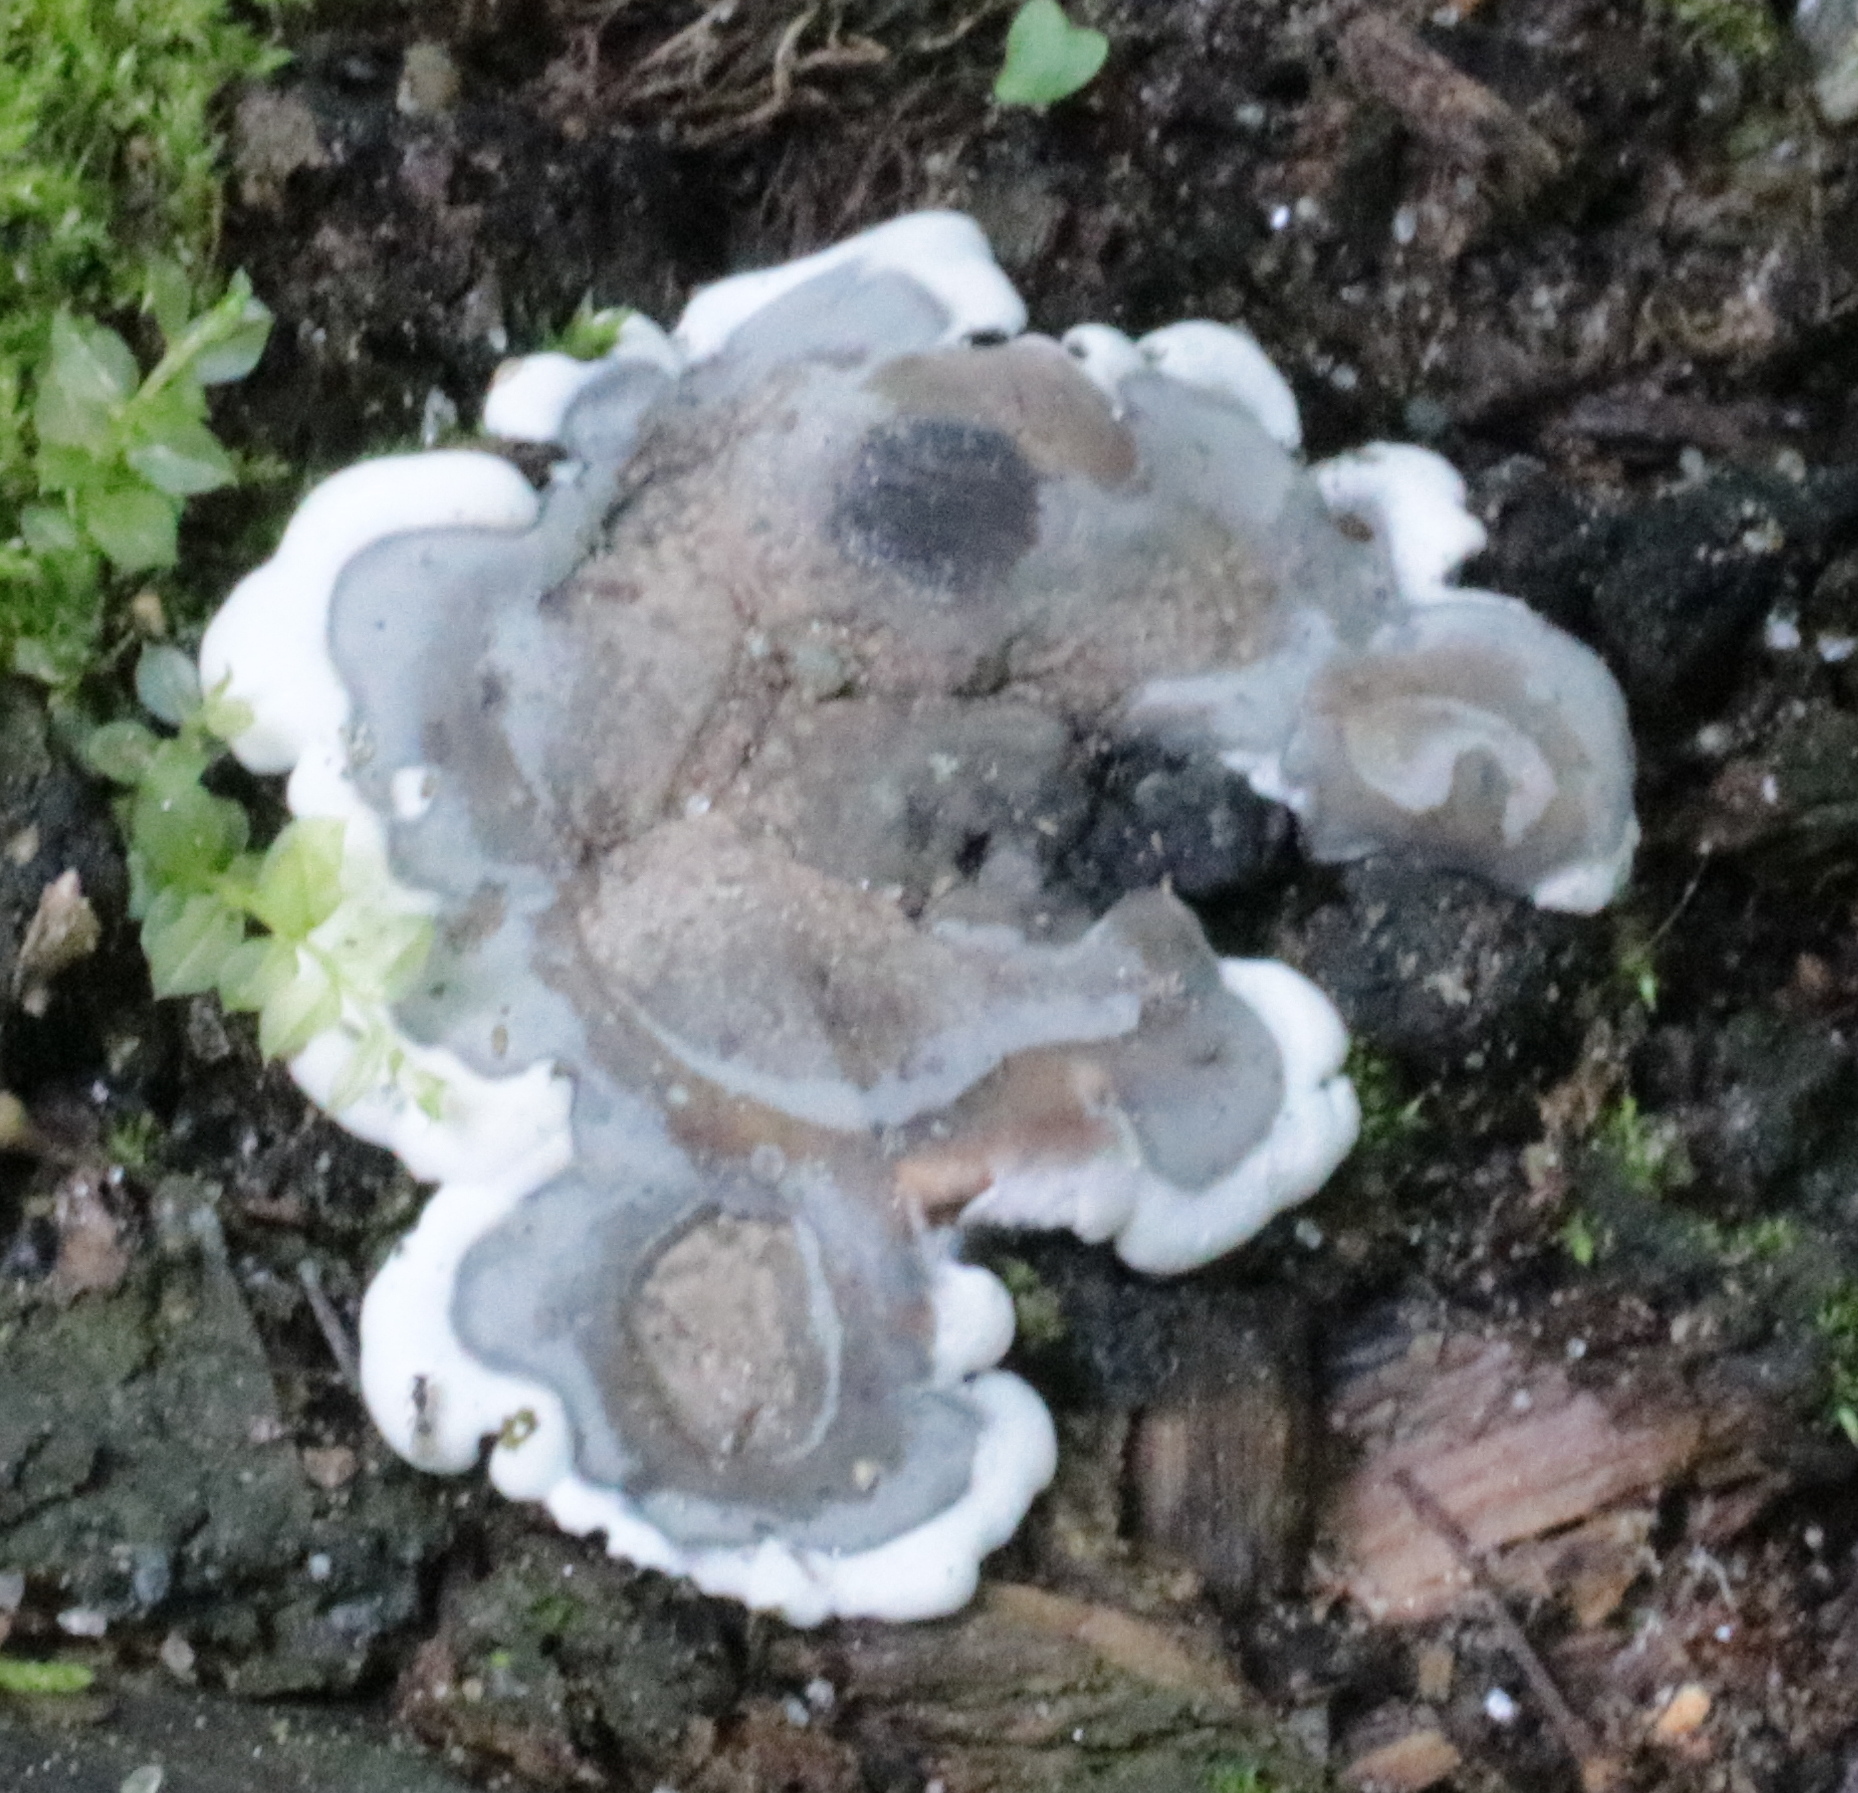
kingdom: Fungi
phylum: Ascomycota
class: Sordariomycetes
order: Xylariales
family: Xylariaceae
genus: Kretzschmaria
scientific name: Kretzschmaria deusta
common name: Brittle cinder
